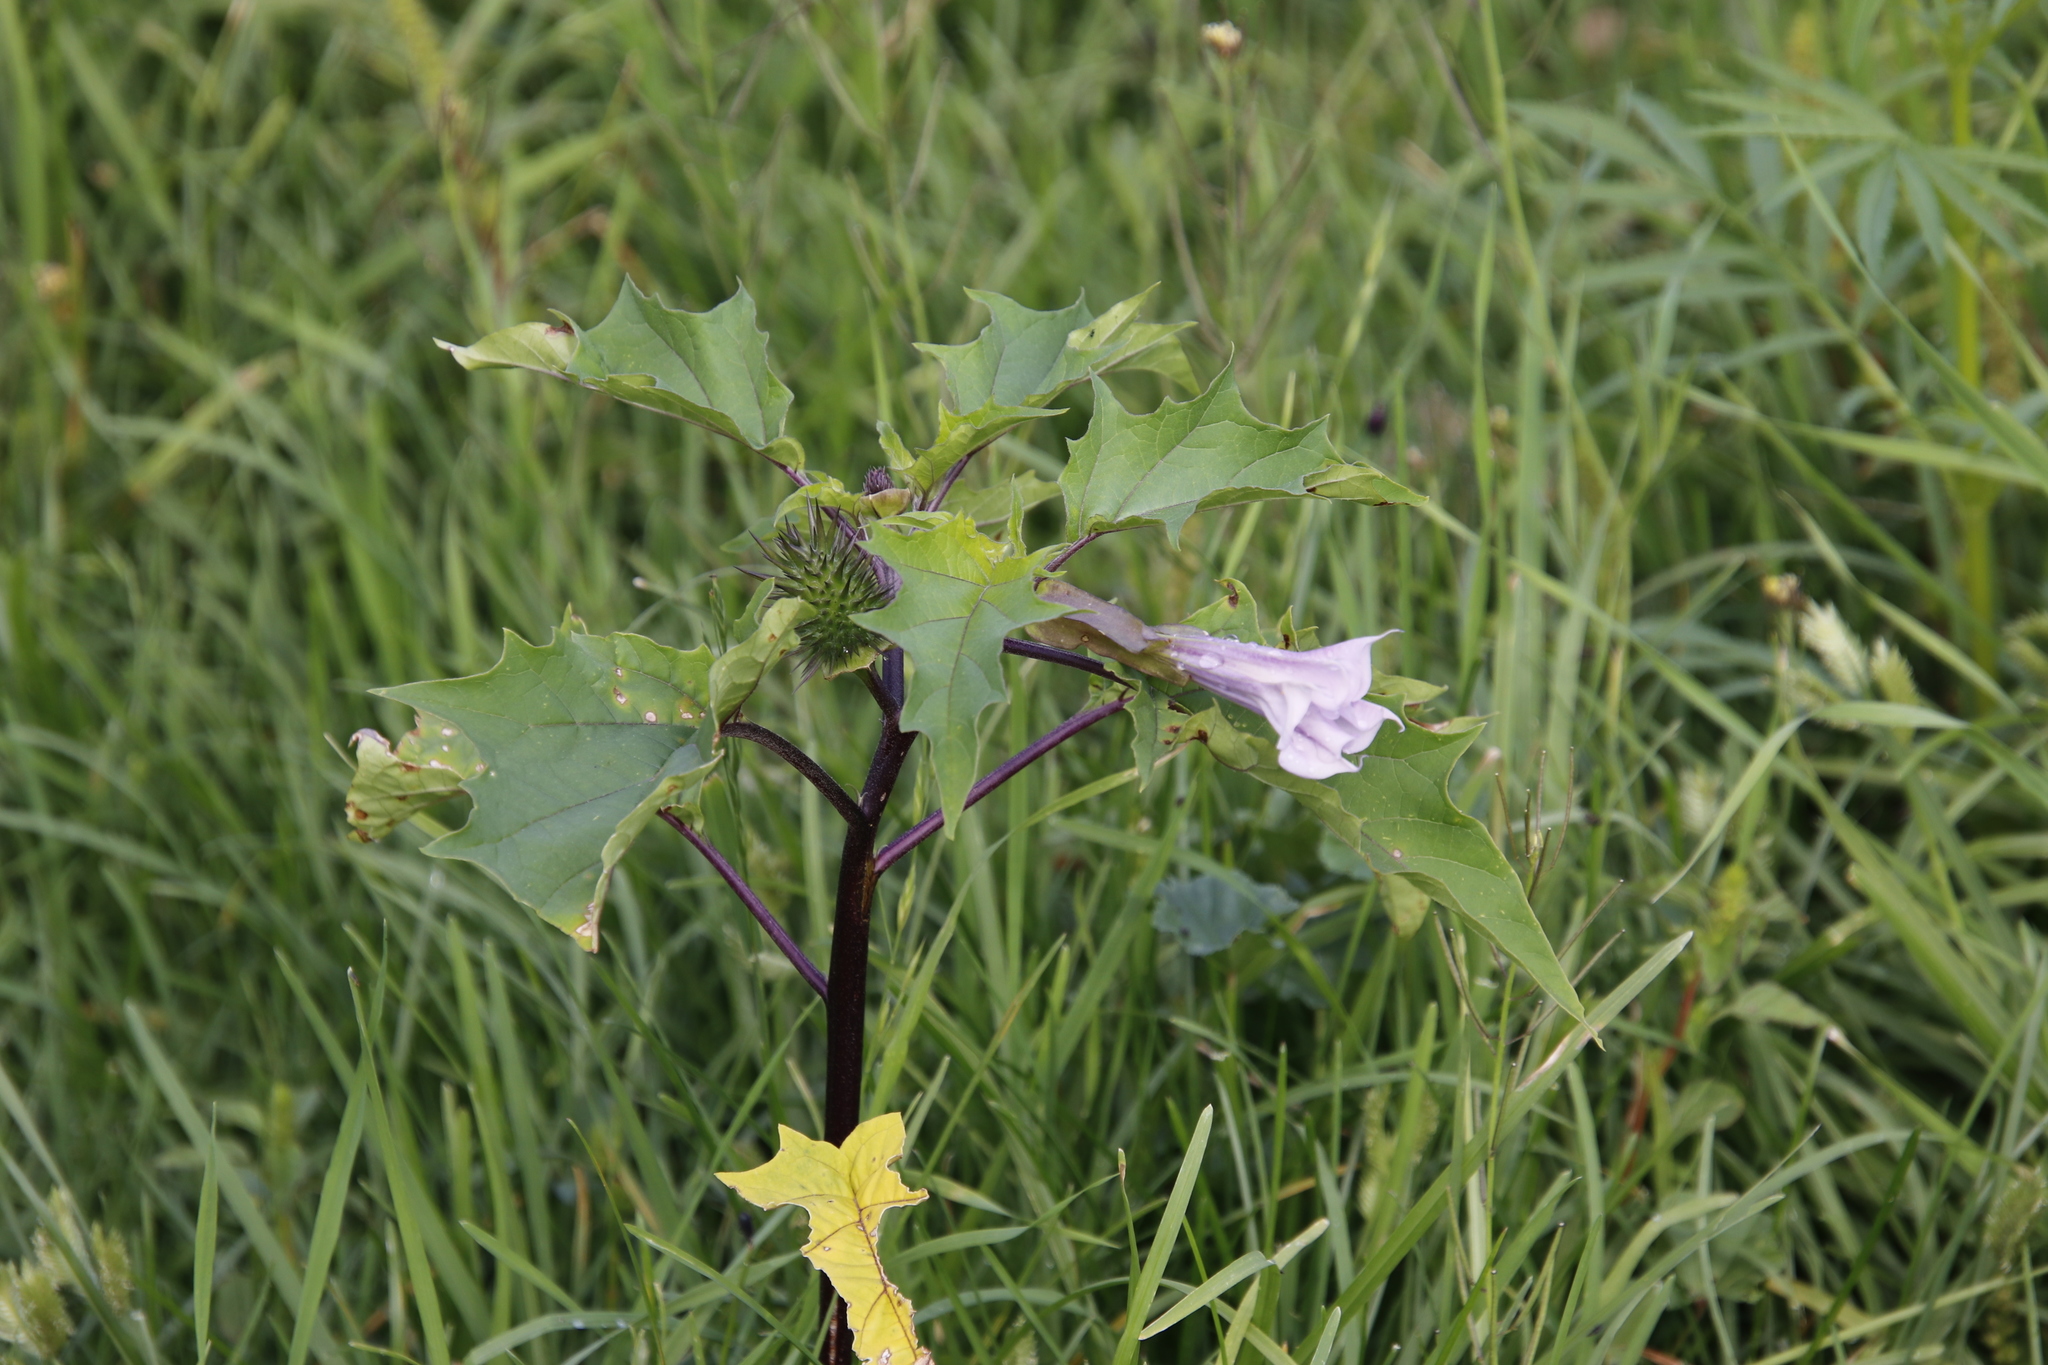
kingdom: Plantae
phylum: Tracheophyta
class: Magnoliopsida
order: Solanales
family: Solanaceae
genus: Datura
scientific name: Datura stramonium
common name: Thorn-apple
